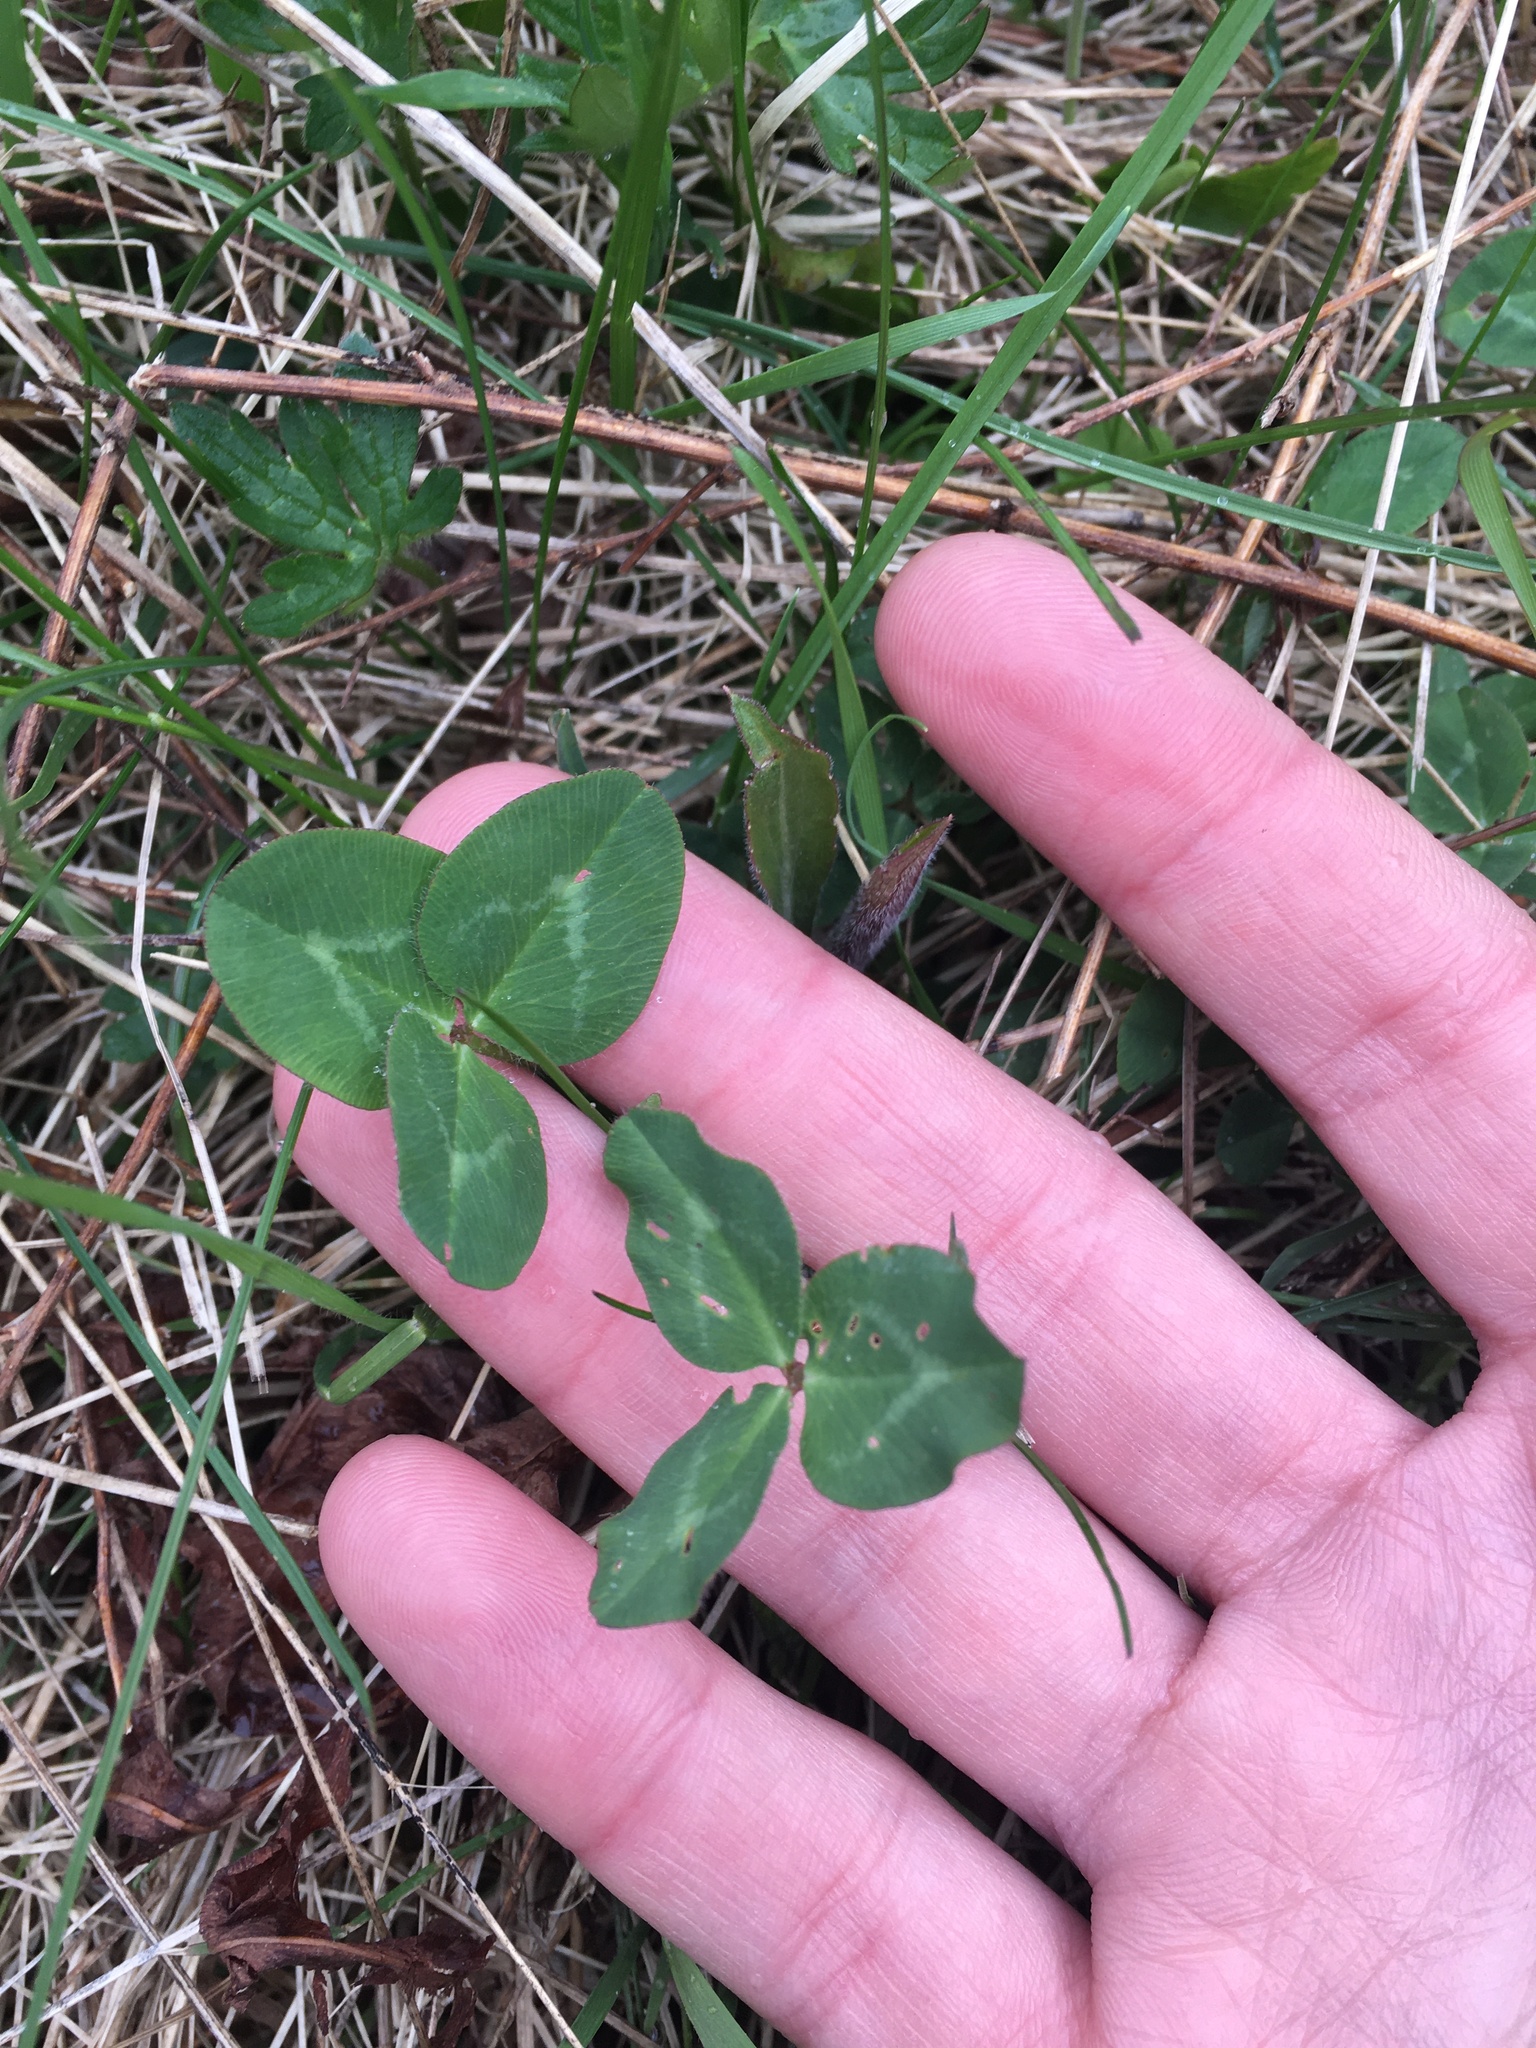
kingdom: Plantae
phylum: Tracheophyta
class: Magnoliopsida
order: Fabales
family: Fabaceae
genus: Trifolium
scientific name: Trifolium pratense
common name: Red clover
